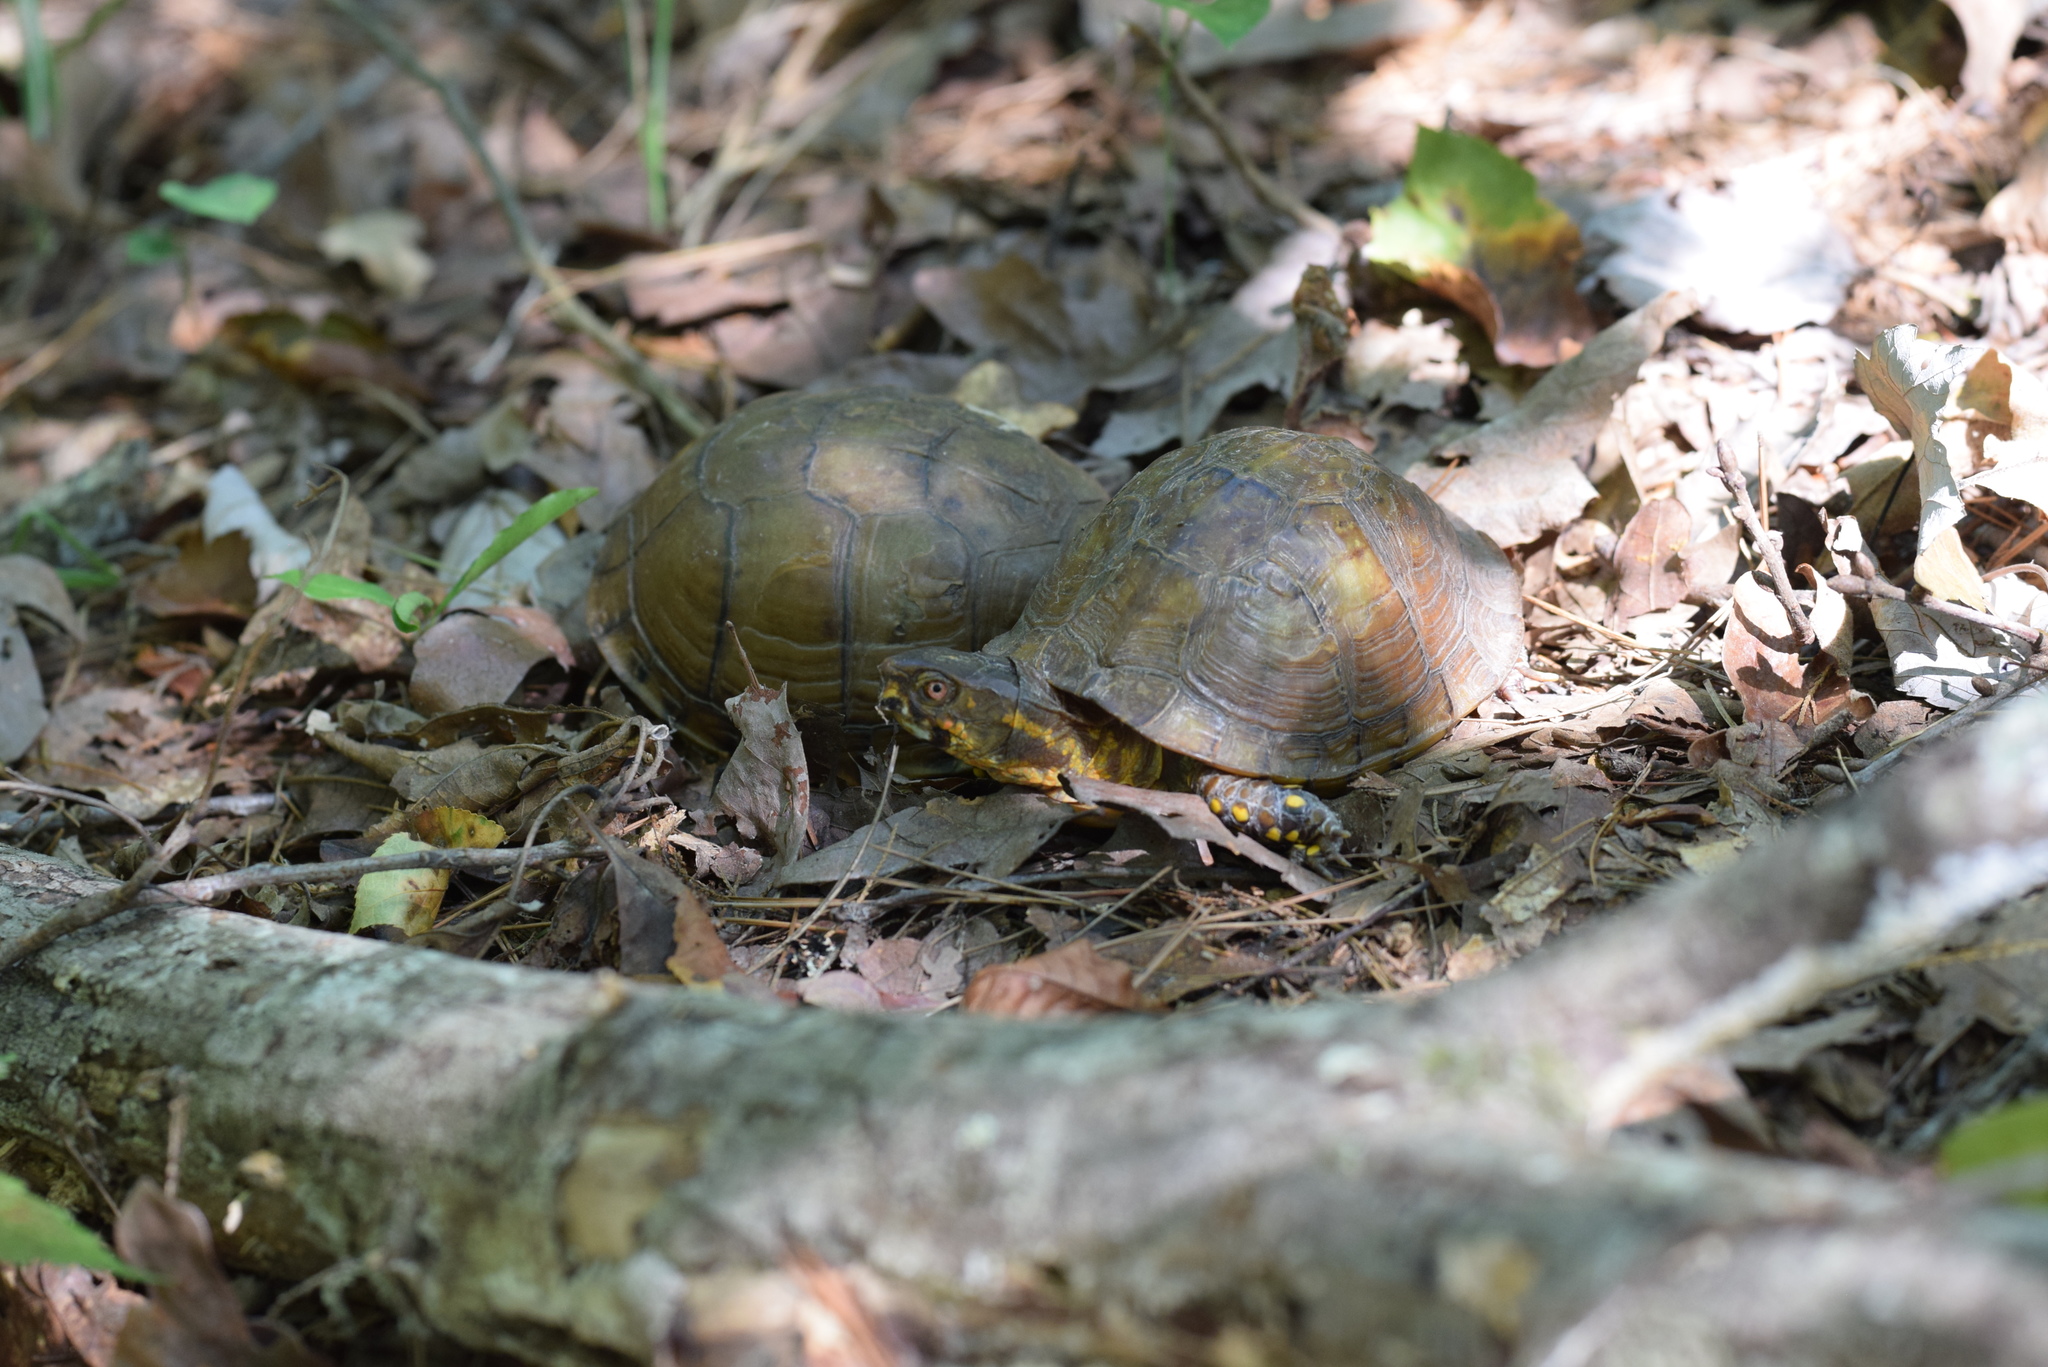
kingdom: Animalia
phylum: Chordata
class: Testudines
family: Emydidae
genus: Terrapene
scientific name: Terrapene carolina
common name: Common box turtle
